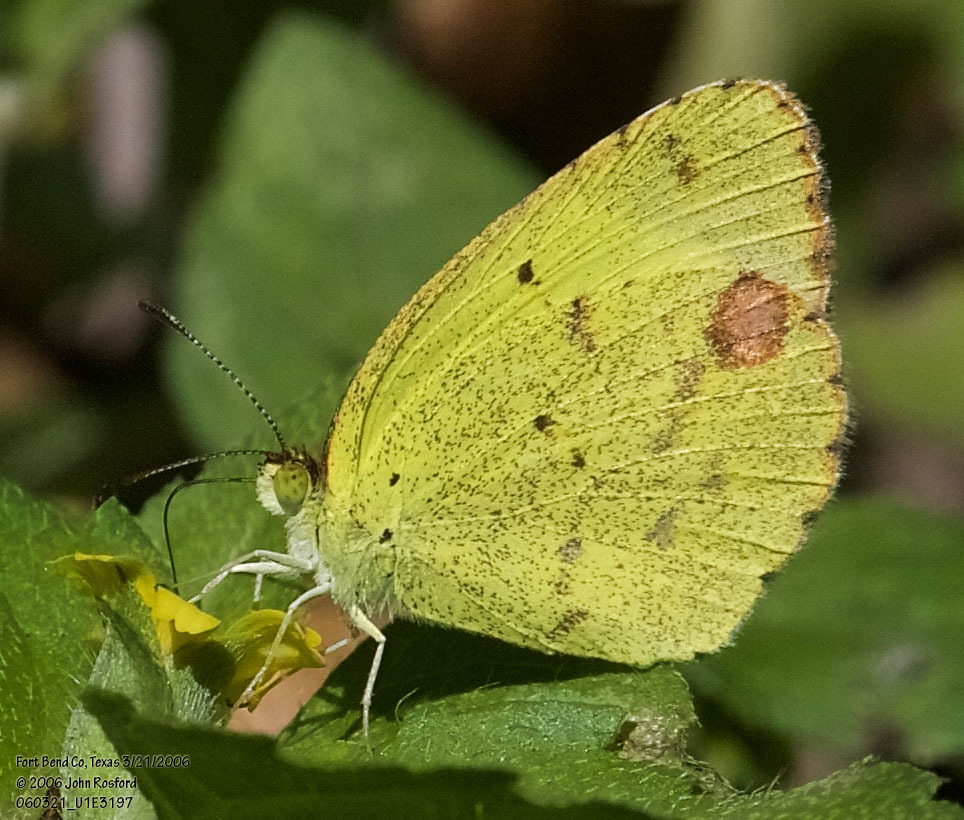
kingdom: Animalia
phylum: Arthropoda
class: Insecta
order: Lepidoptera
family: Pieridae
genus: Pyrisitia
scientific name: Pyrisitia lisa
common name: Little yellow
